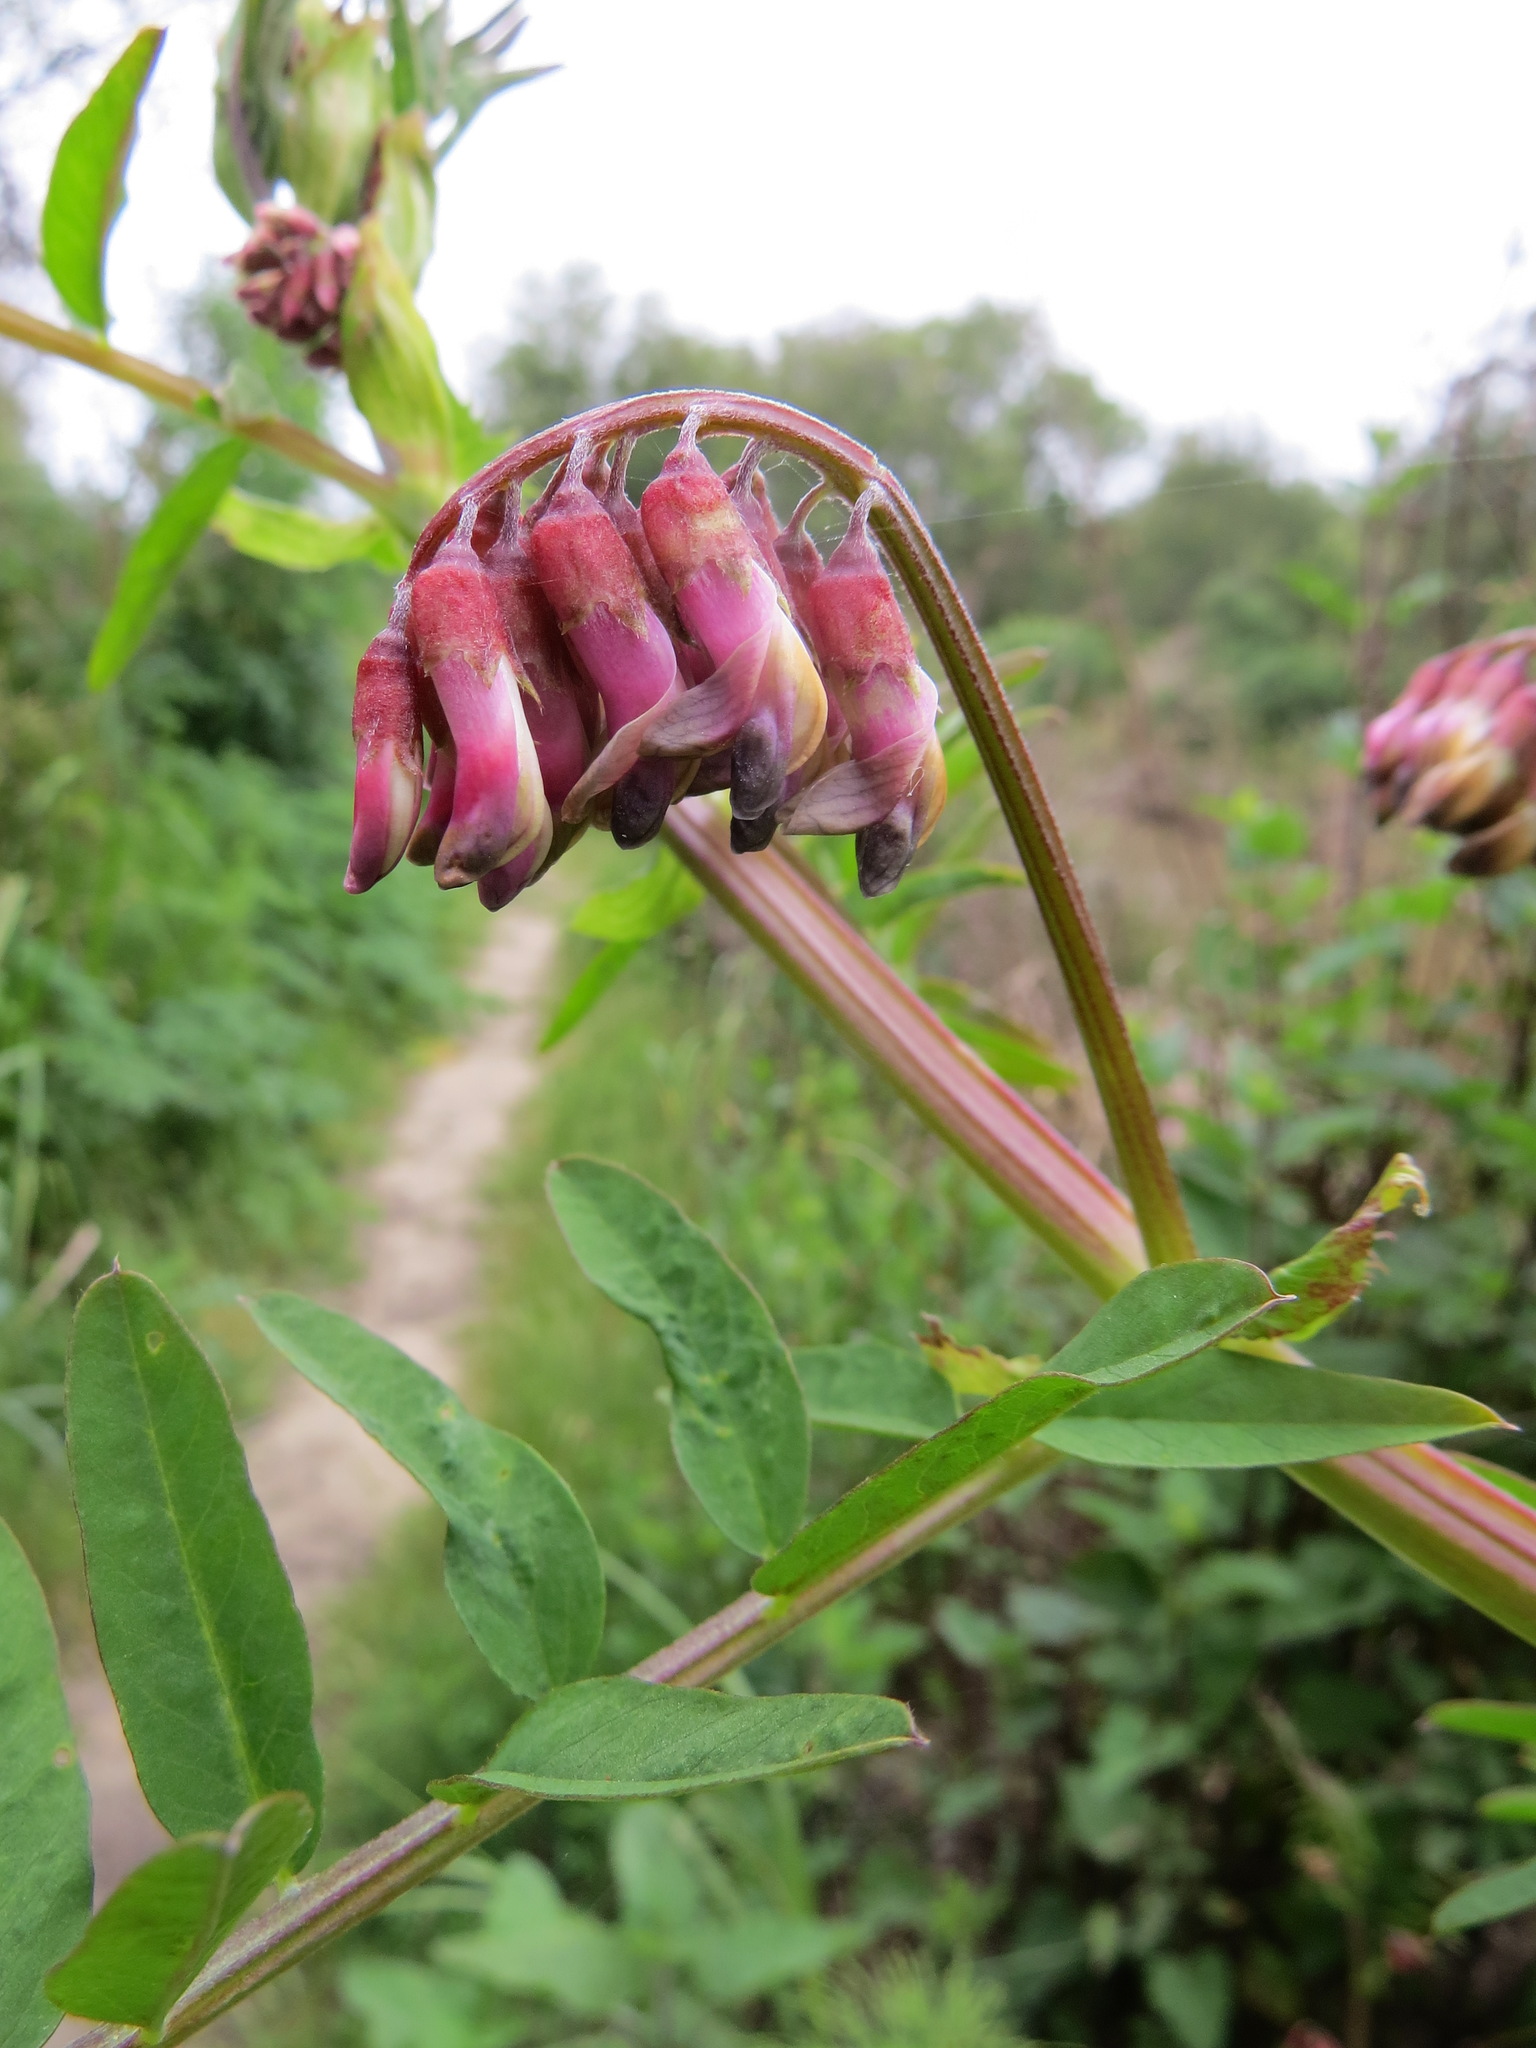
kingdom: Plantae
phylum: Tracheophyta
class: Magnoliopsida
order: Fabales
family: Fabaceae
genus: Vicia
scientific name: Vicia
